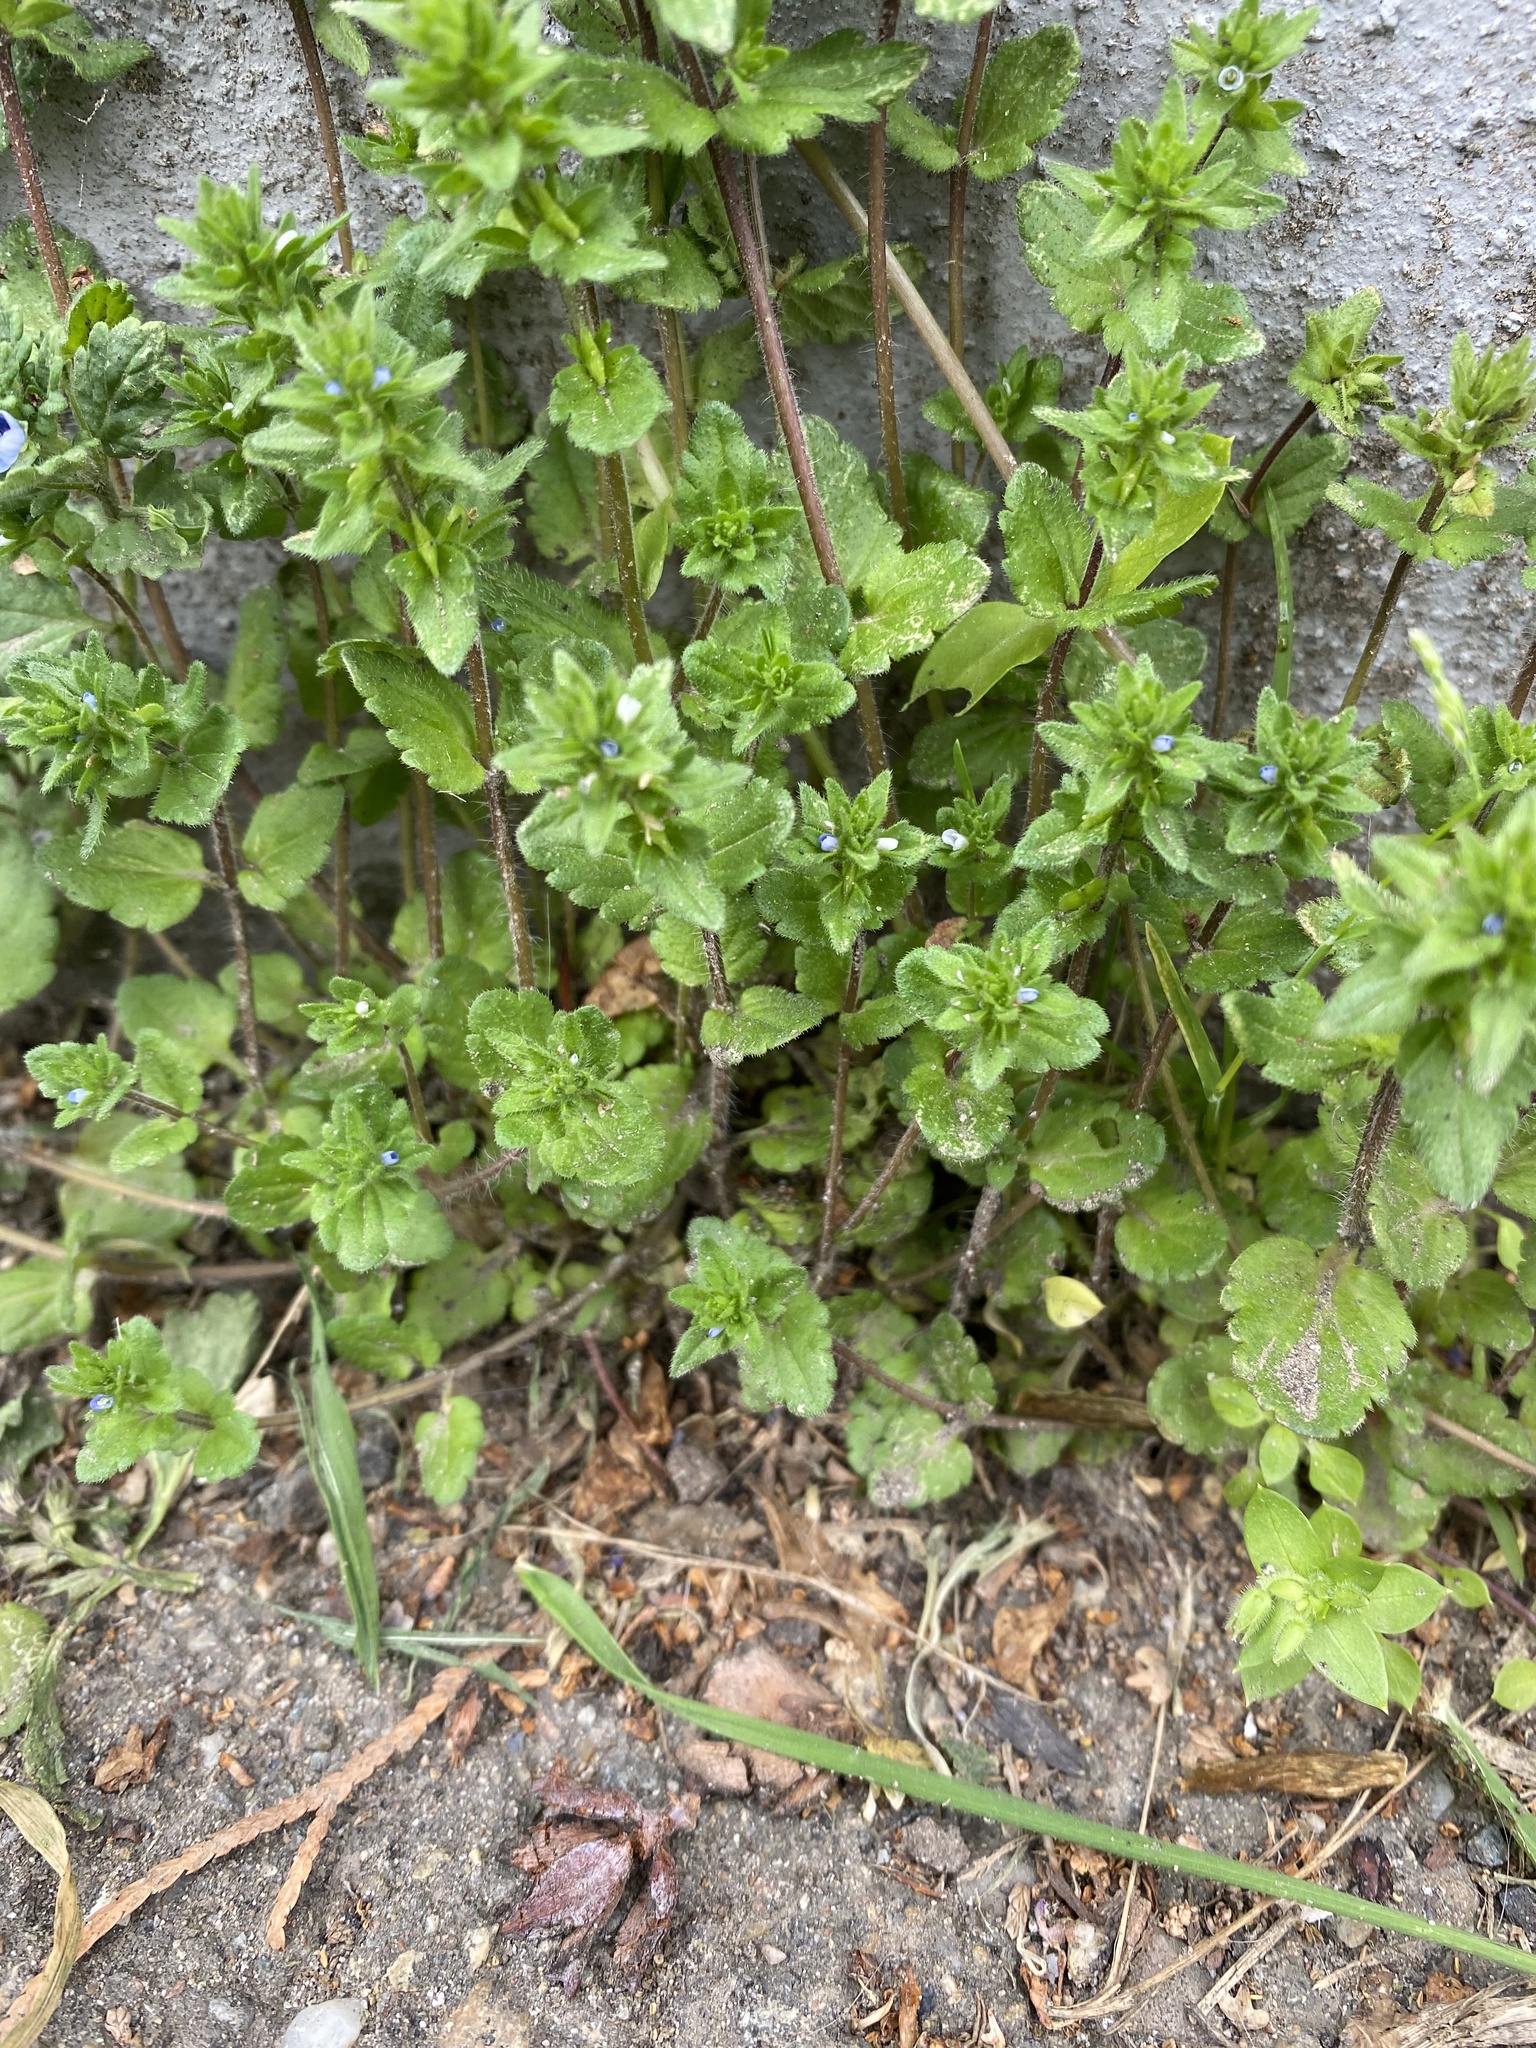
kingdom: Plantae
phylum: Tracheophyta
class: Magnoliopsida
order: Lamiales
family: Plantaginaceae
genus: Veronica
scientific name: Veronica arvensis
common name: Corn speedwell
